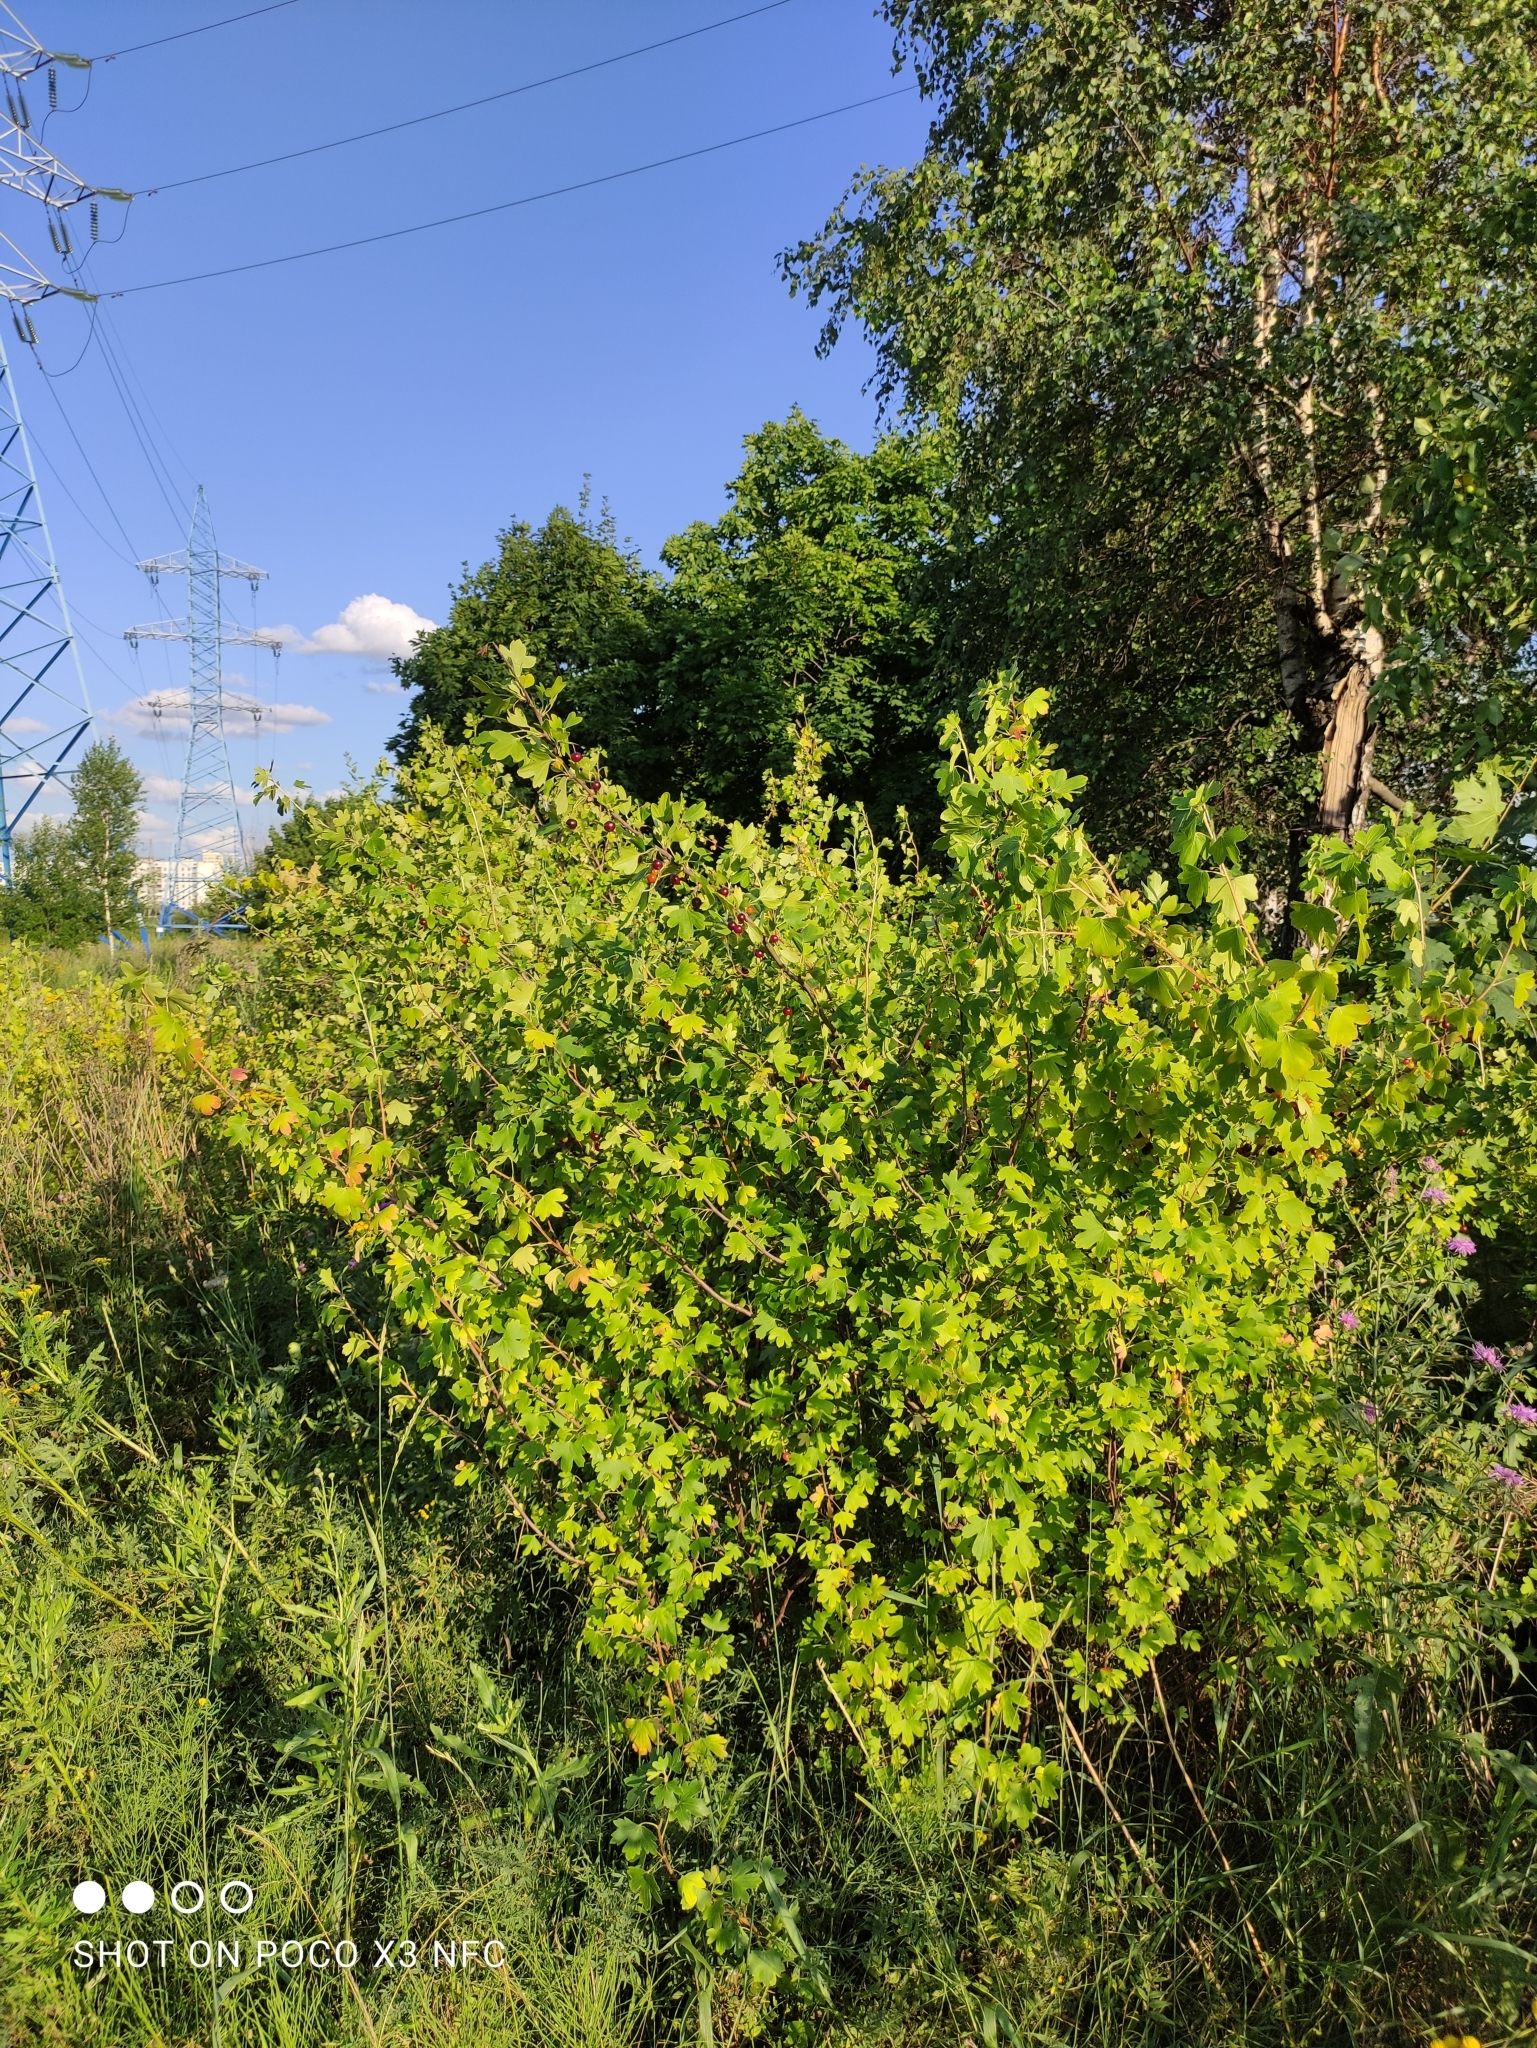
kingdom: Plantae
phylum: Tracheophyta
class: Magnoliopsida
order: Saxifragales
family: Grossulariaceae
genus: Ribes
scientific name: Ribes aureum
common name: Golden currant
